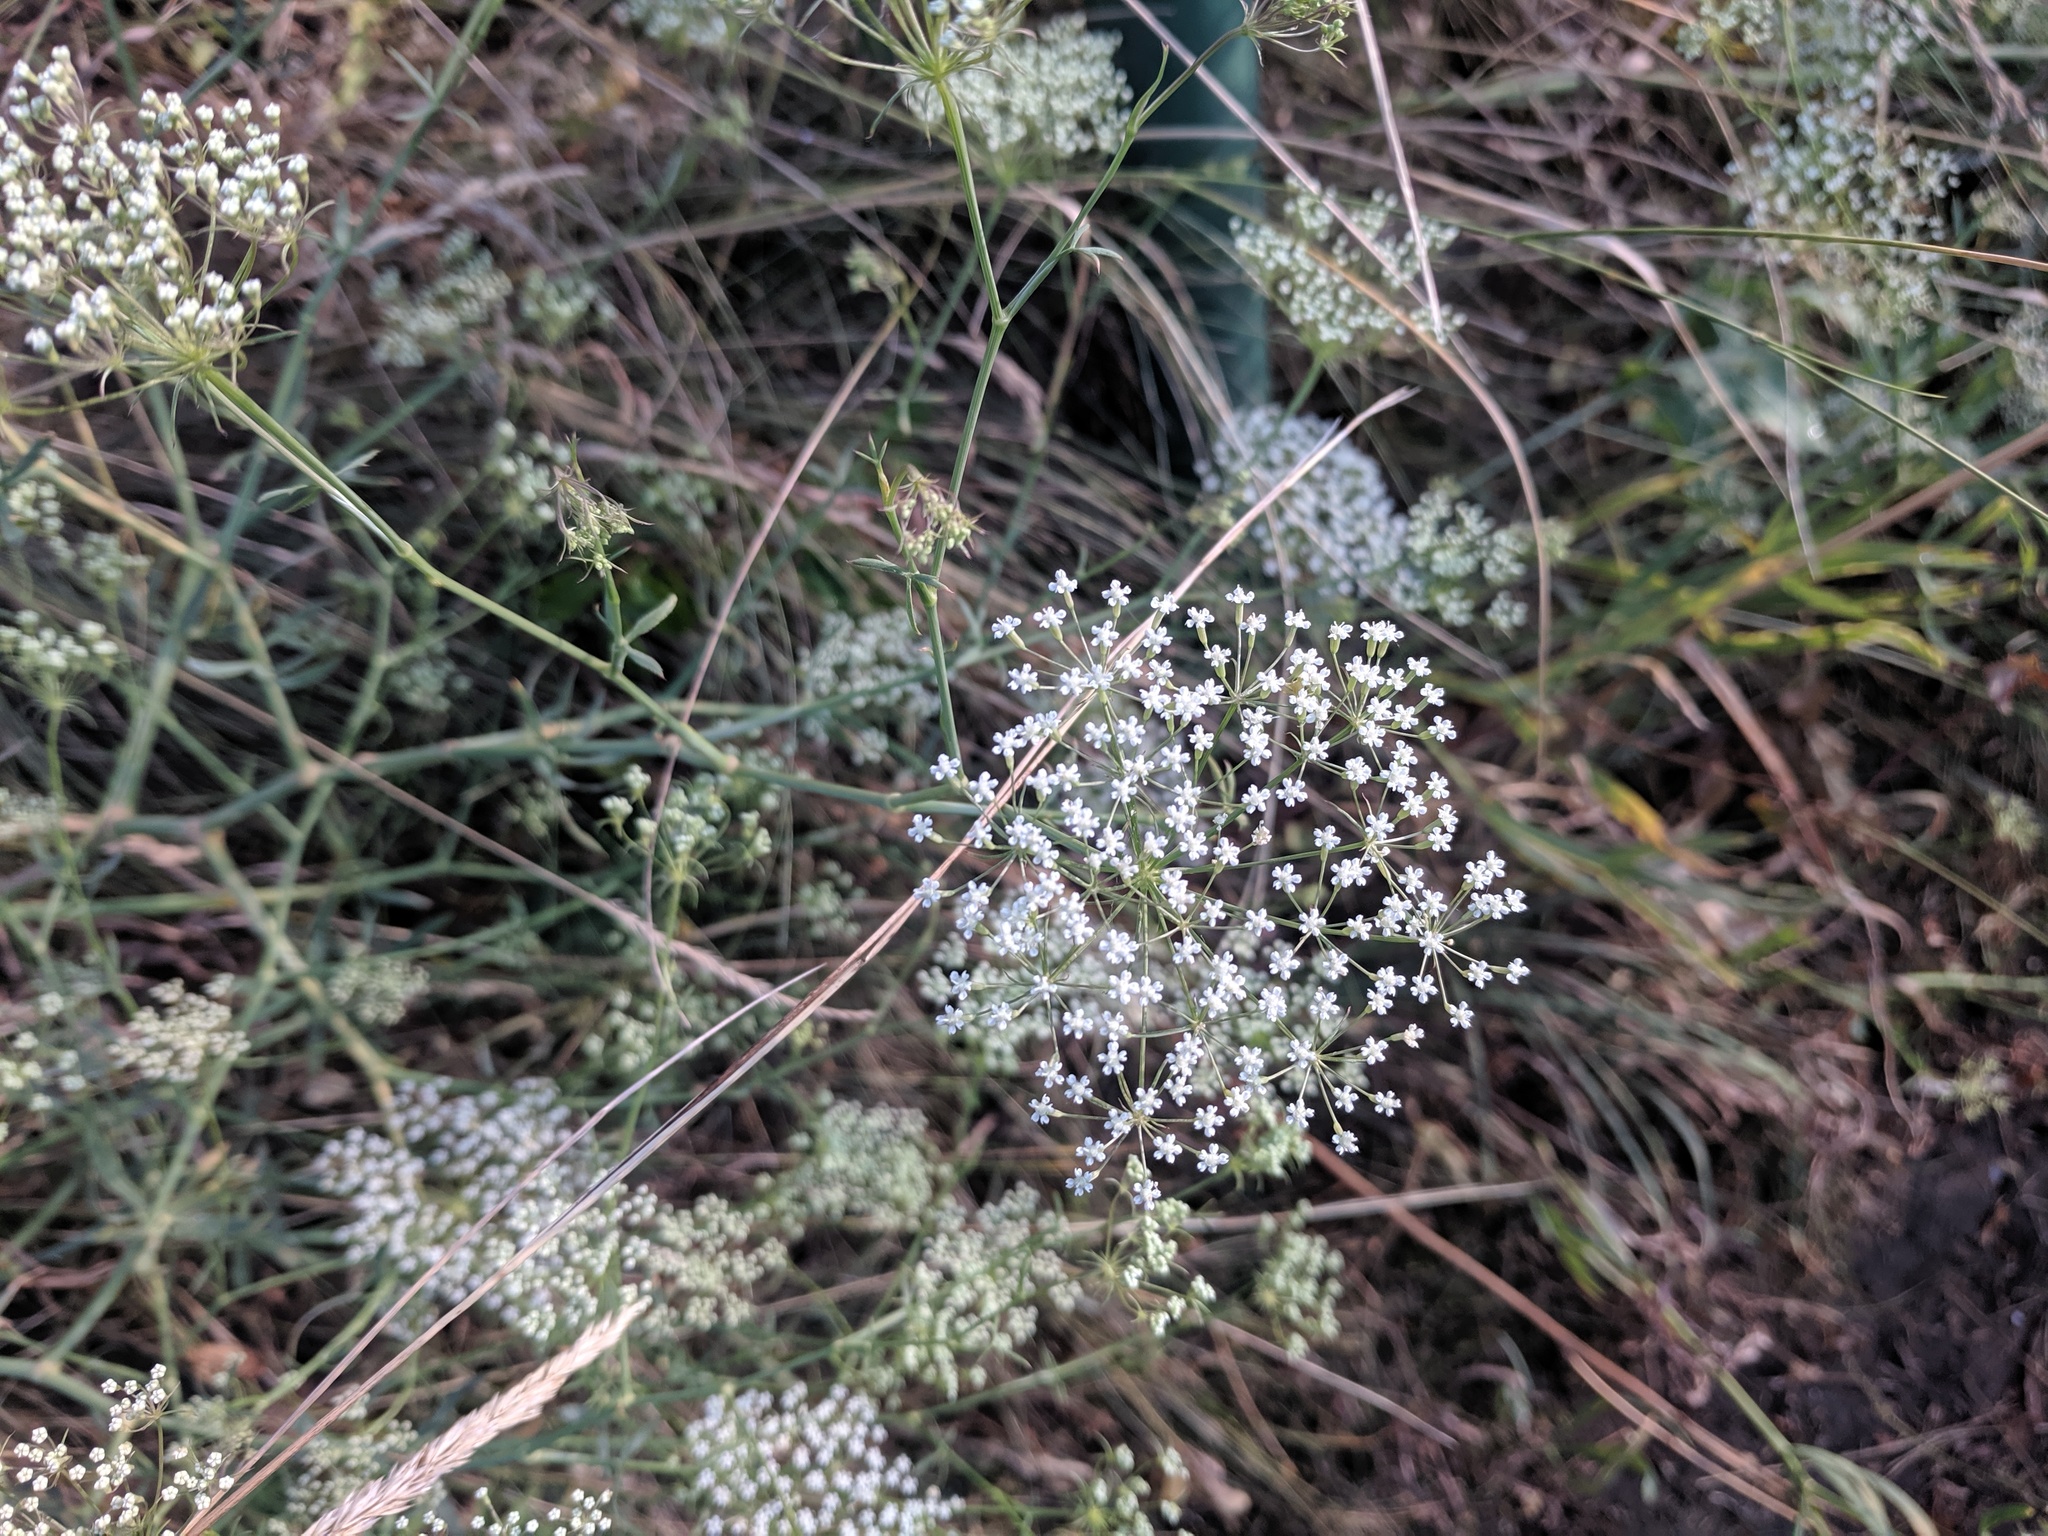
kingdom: Plantae
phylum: Tracheophyta
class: Magnoliopsida
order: Apiales
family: Apiaceae
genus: Falcaria
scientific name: Falcaria vulgaris
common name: Longleaf
